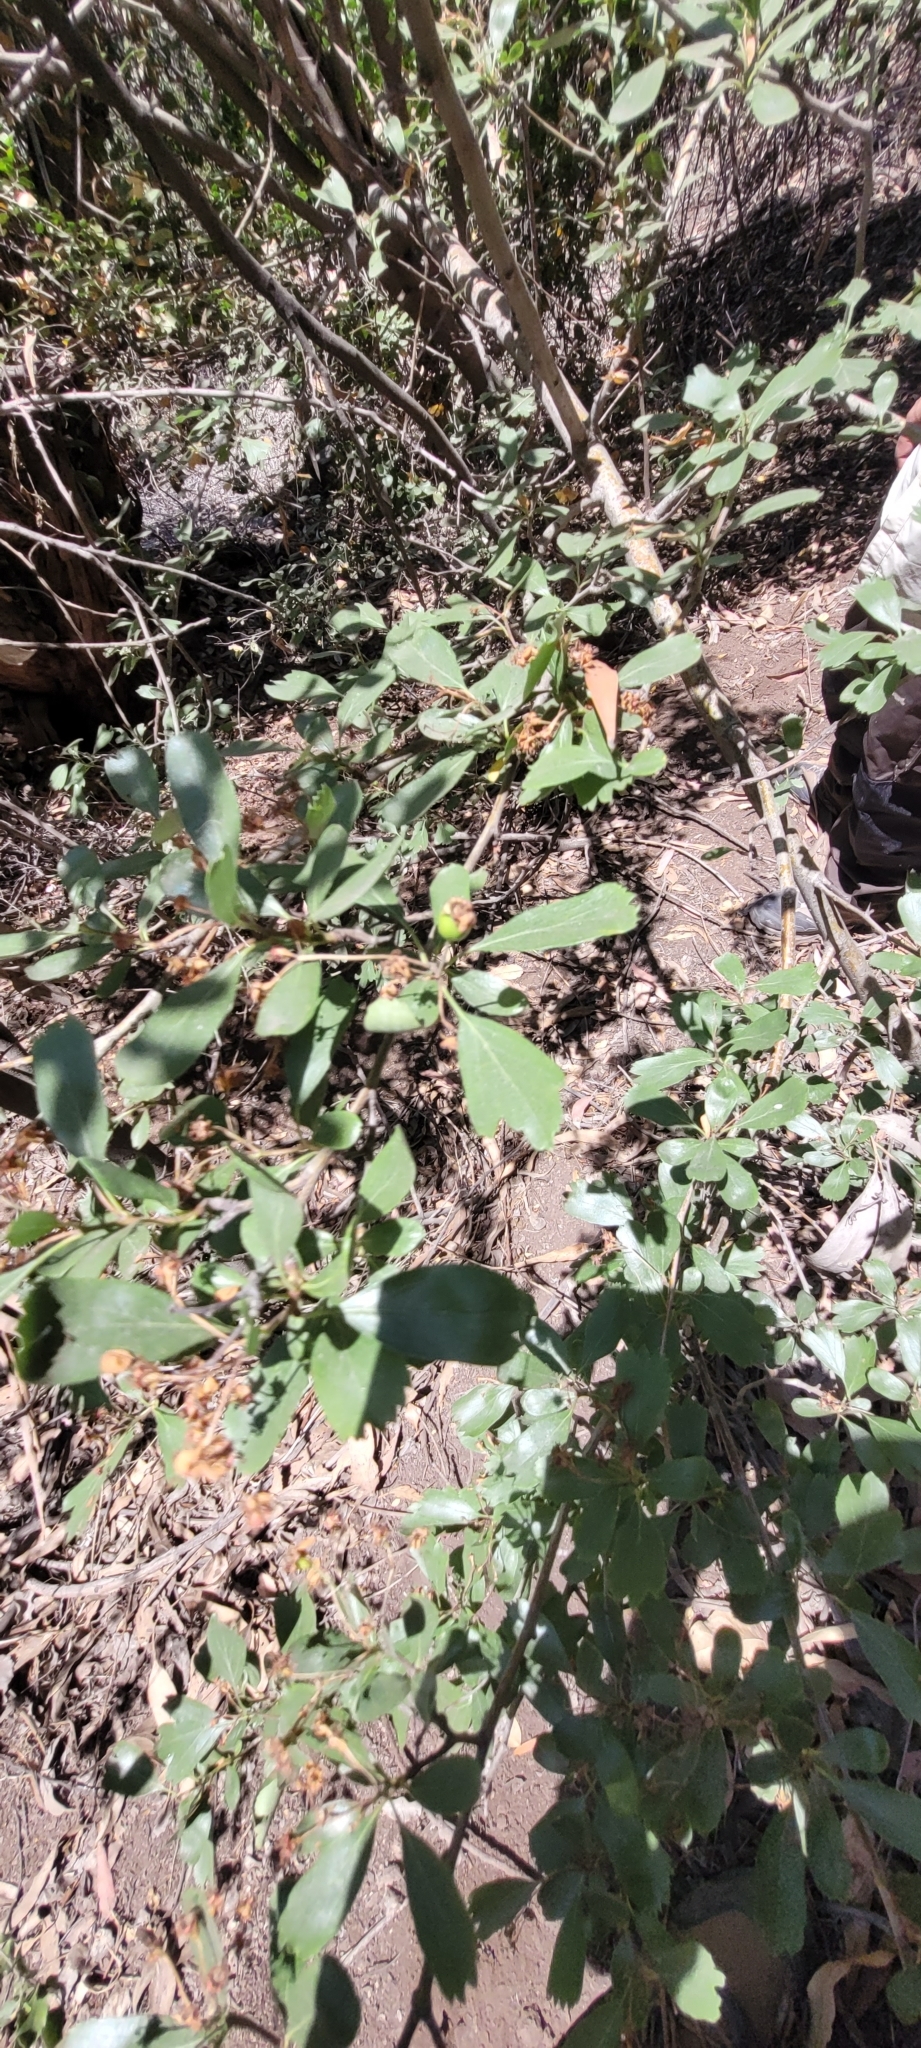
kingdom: Plantae
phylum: Tracheophyta
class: Magnoliopsida
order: Rosales
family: Rosaceae
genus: Crataegus
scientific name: Crataegus monogyna
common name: Hawthorn
